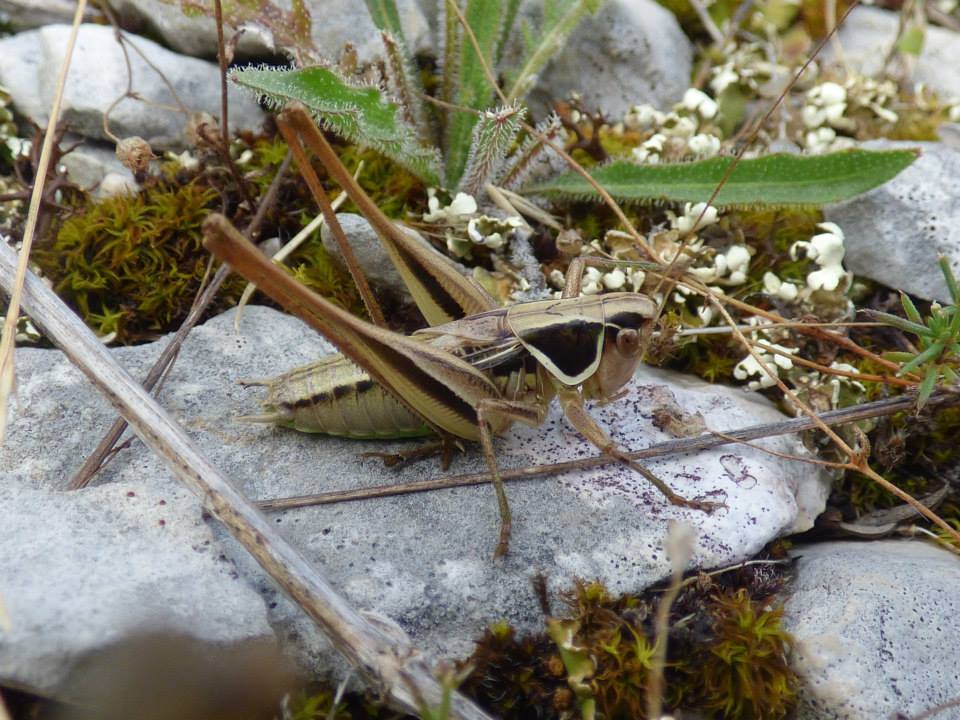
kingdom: Animalia
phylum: Arthropoda
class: Insecta
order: Orthoptera
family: Tettigoniidae
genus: Modestana
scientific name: Modestana modesta
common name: Common modest bush-cricket
